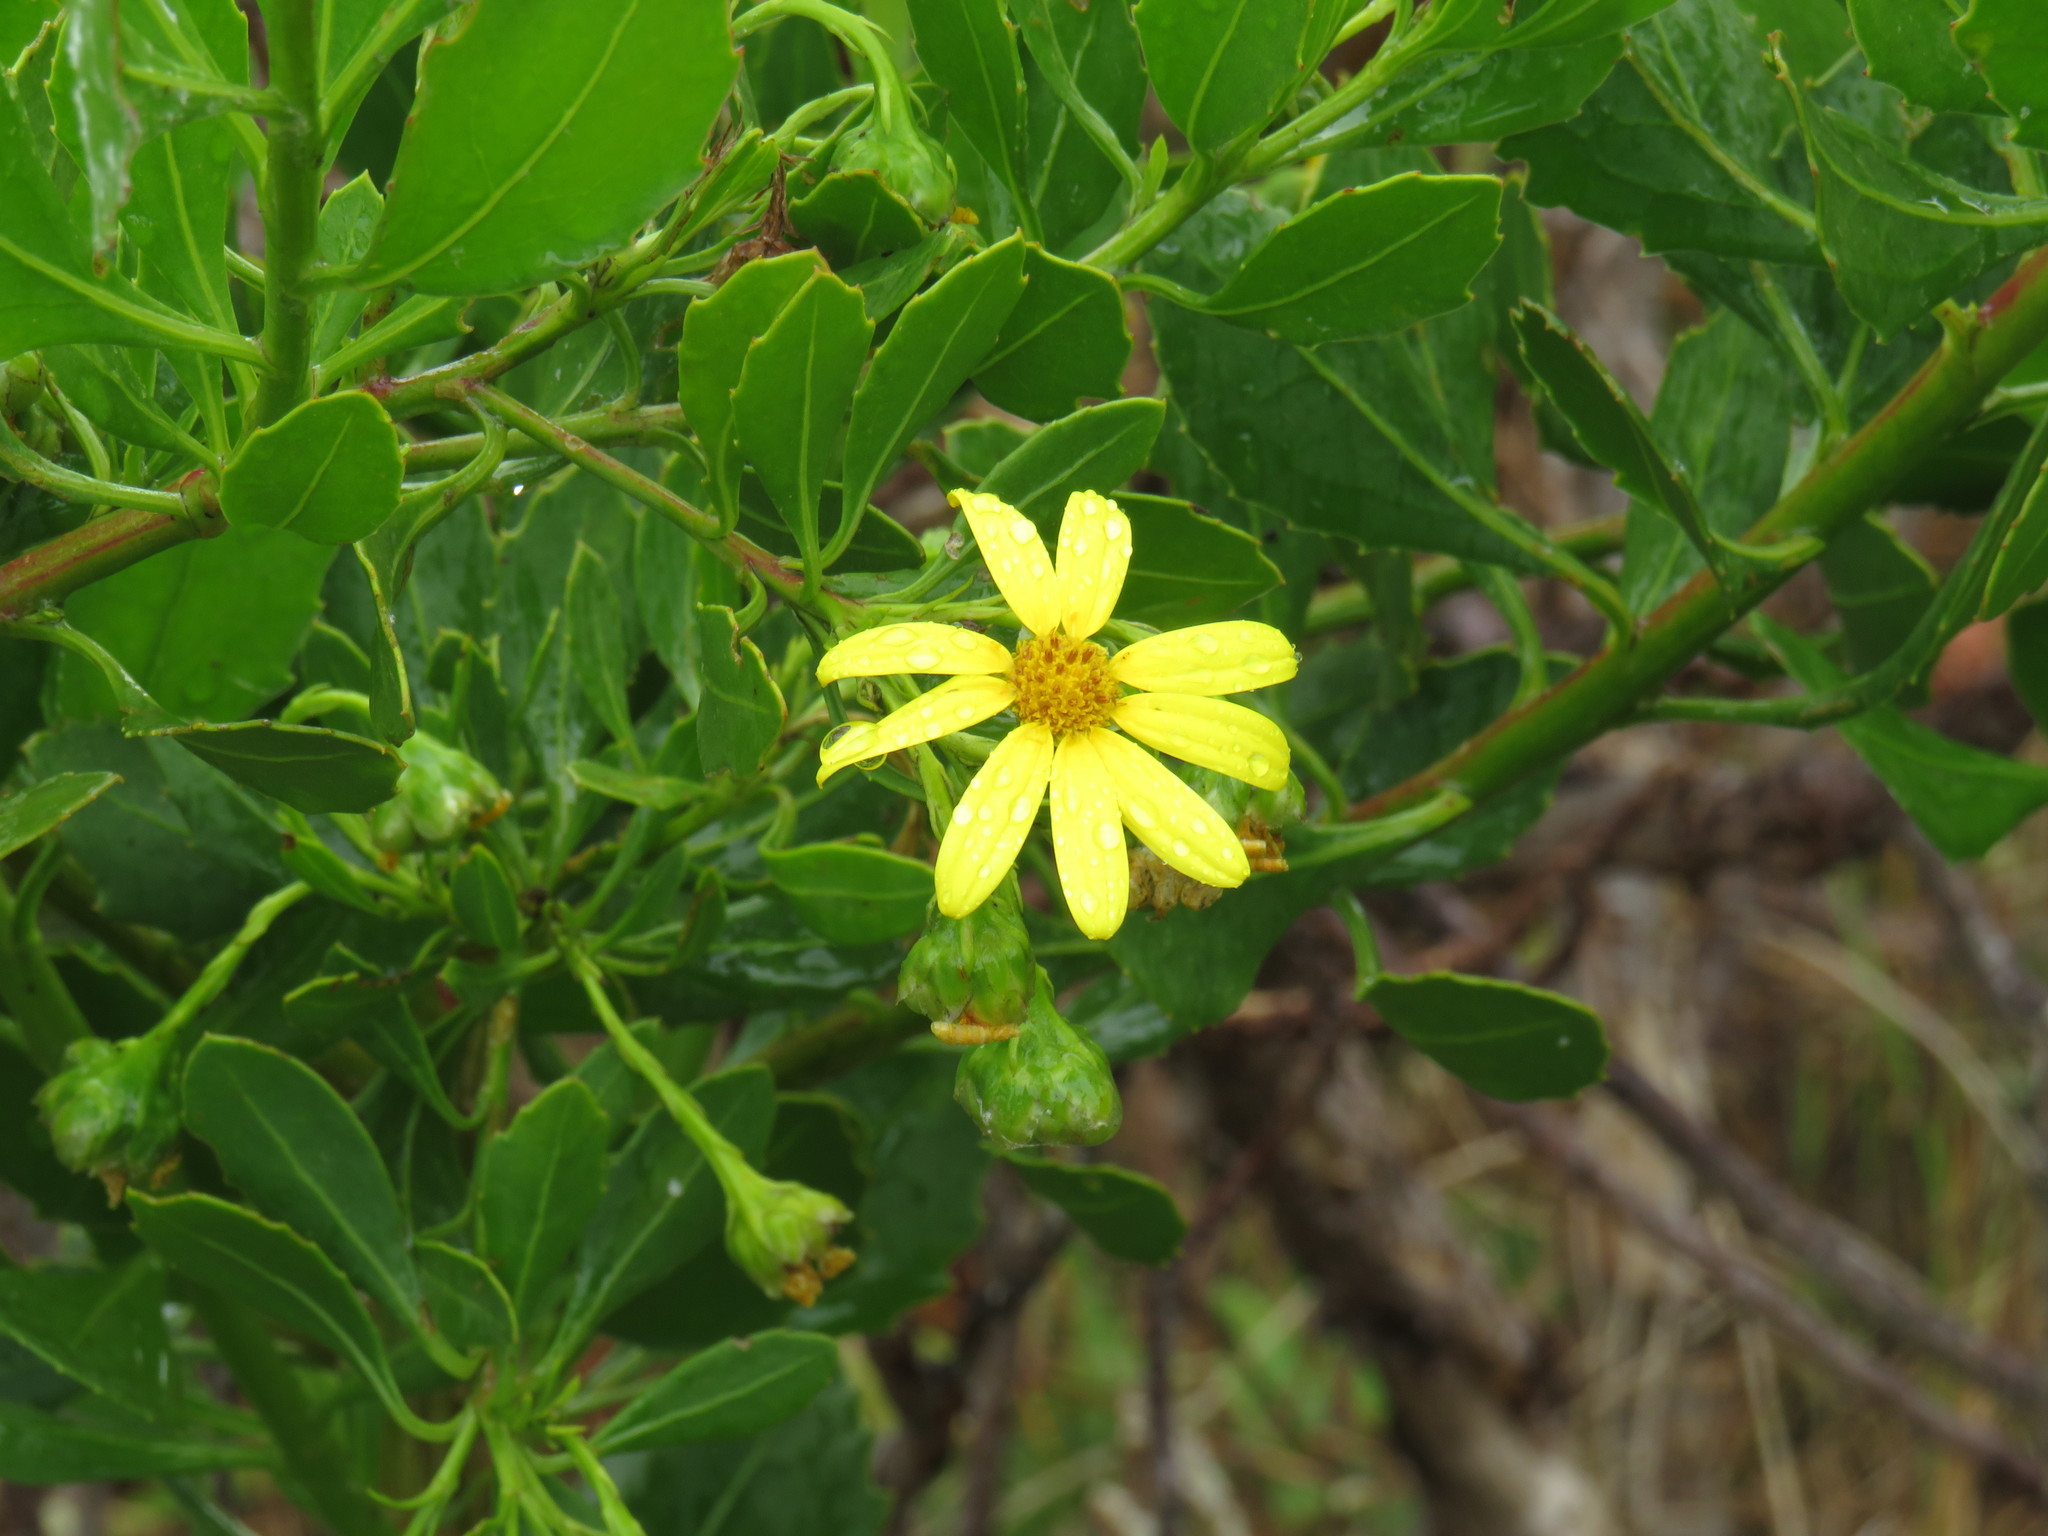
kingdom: Plantae
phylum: Tracheophyta
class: Magnoliopsida
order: Asterales
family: Asteraceae
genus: Osteospermum
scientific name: Osteospermum moniliferum
